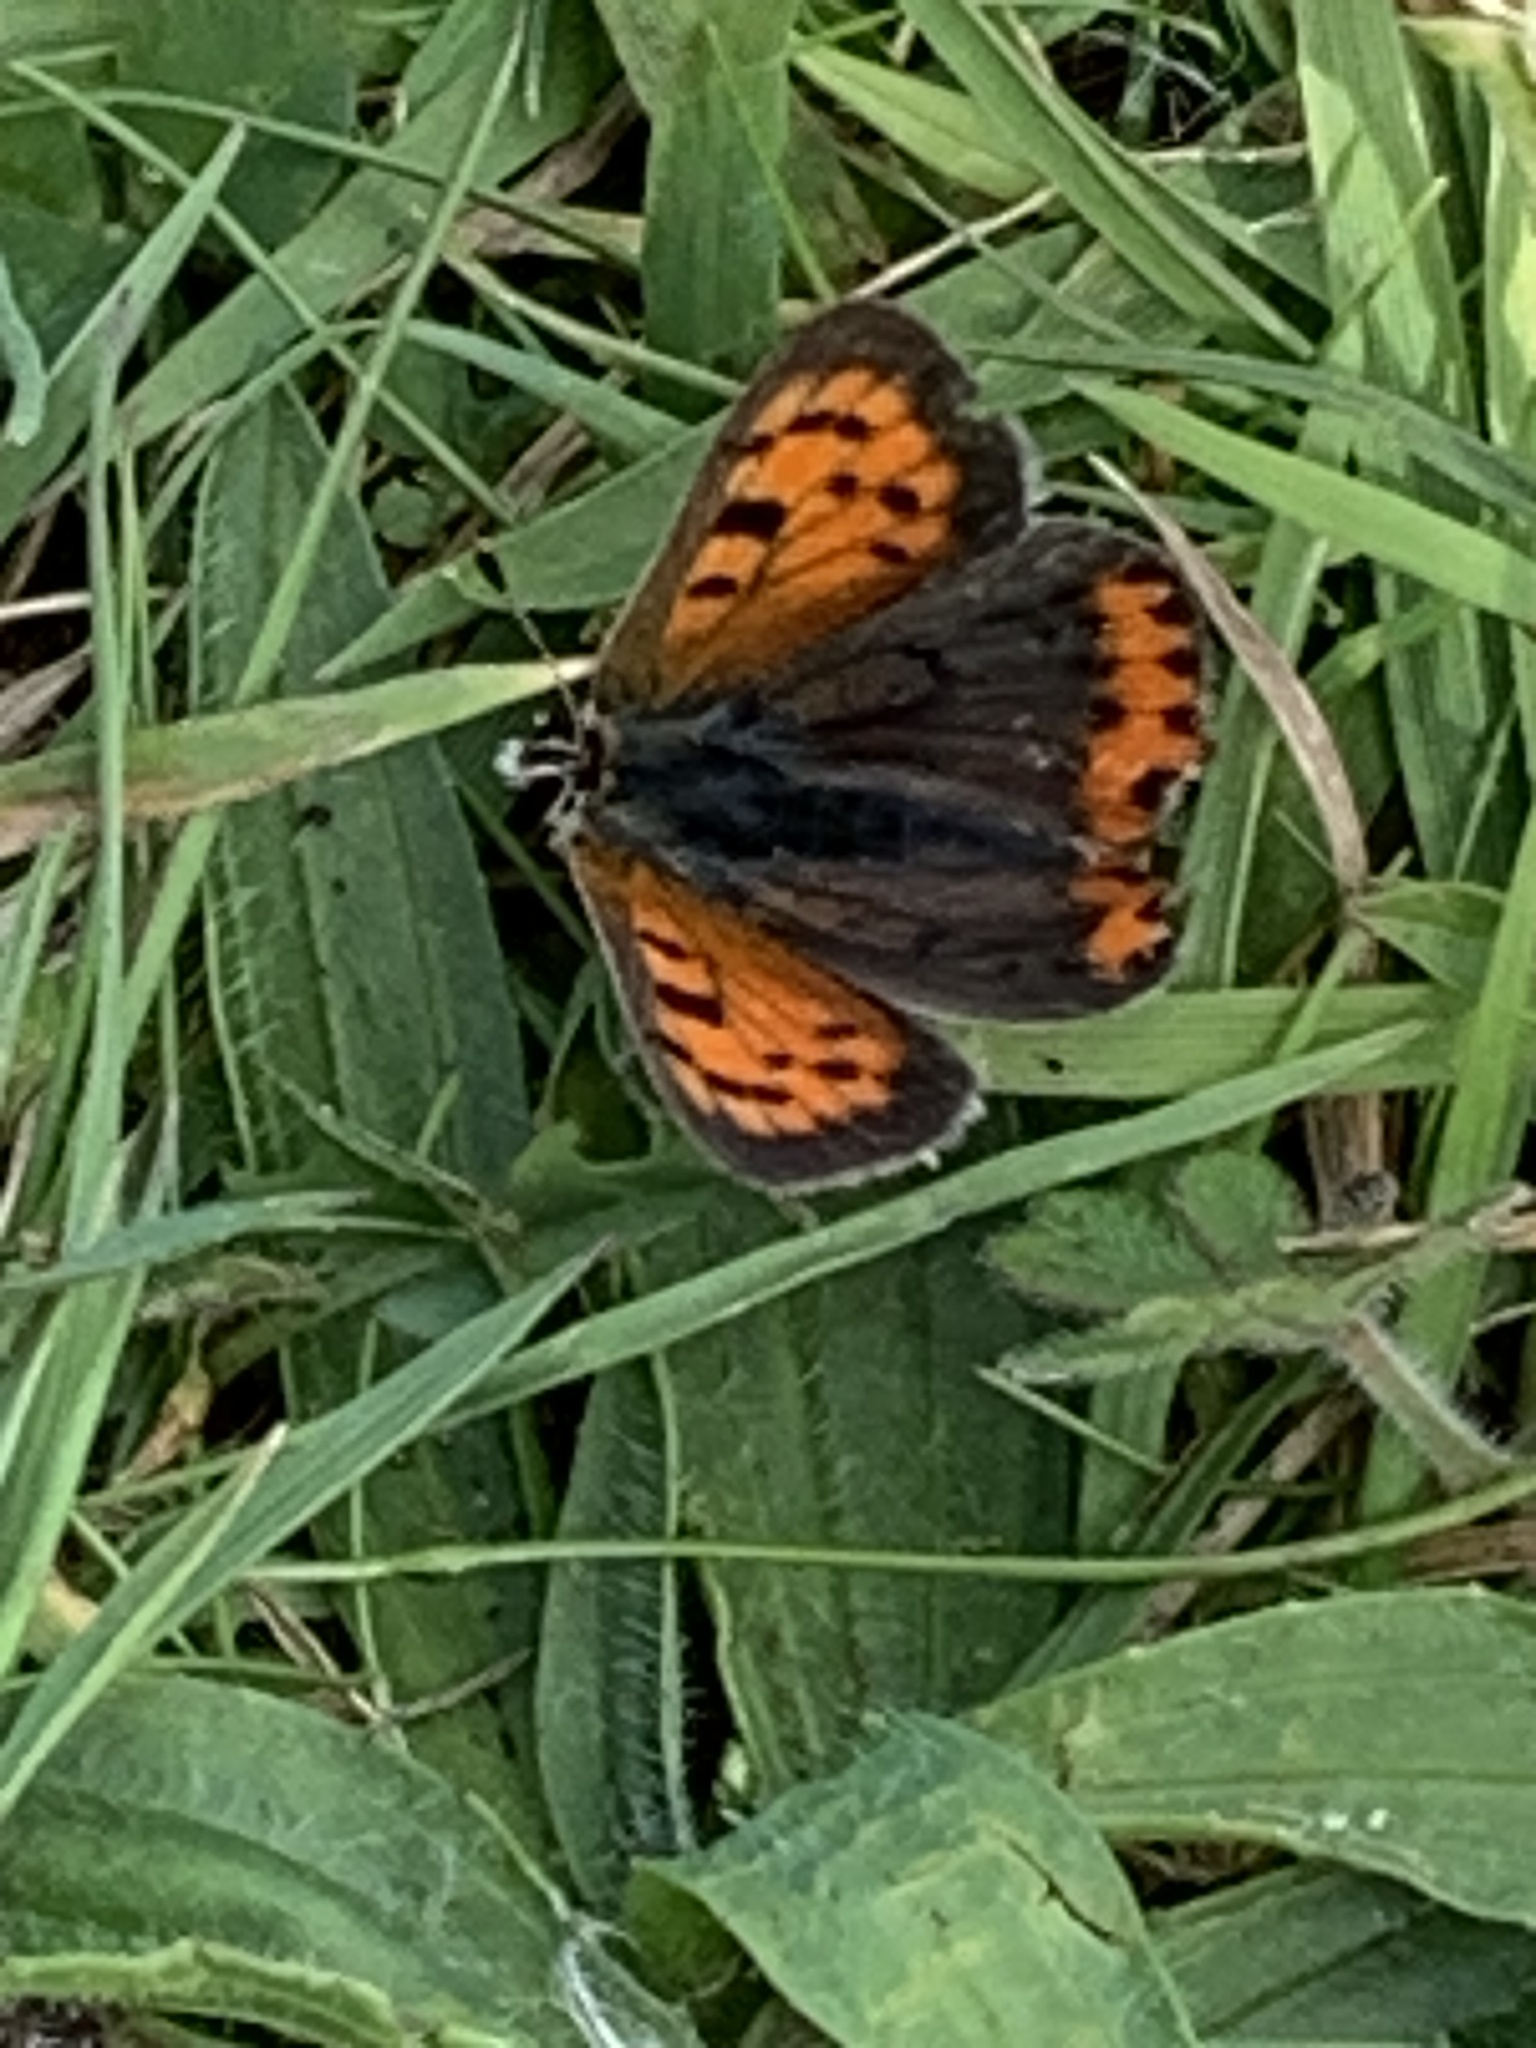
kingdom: Animalia
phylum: Arthropoda
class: Insecta
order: Lepidoptera
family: Lycaenidae
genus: Lycaena
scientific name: Lycaena phlaeas
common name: Small copper
